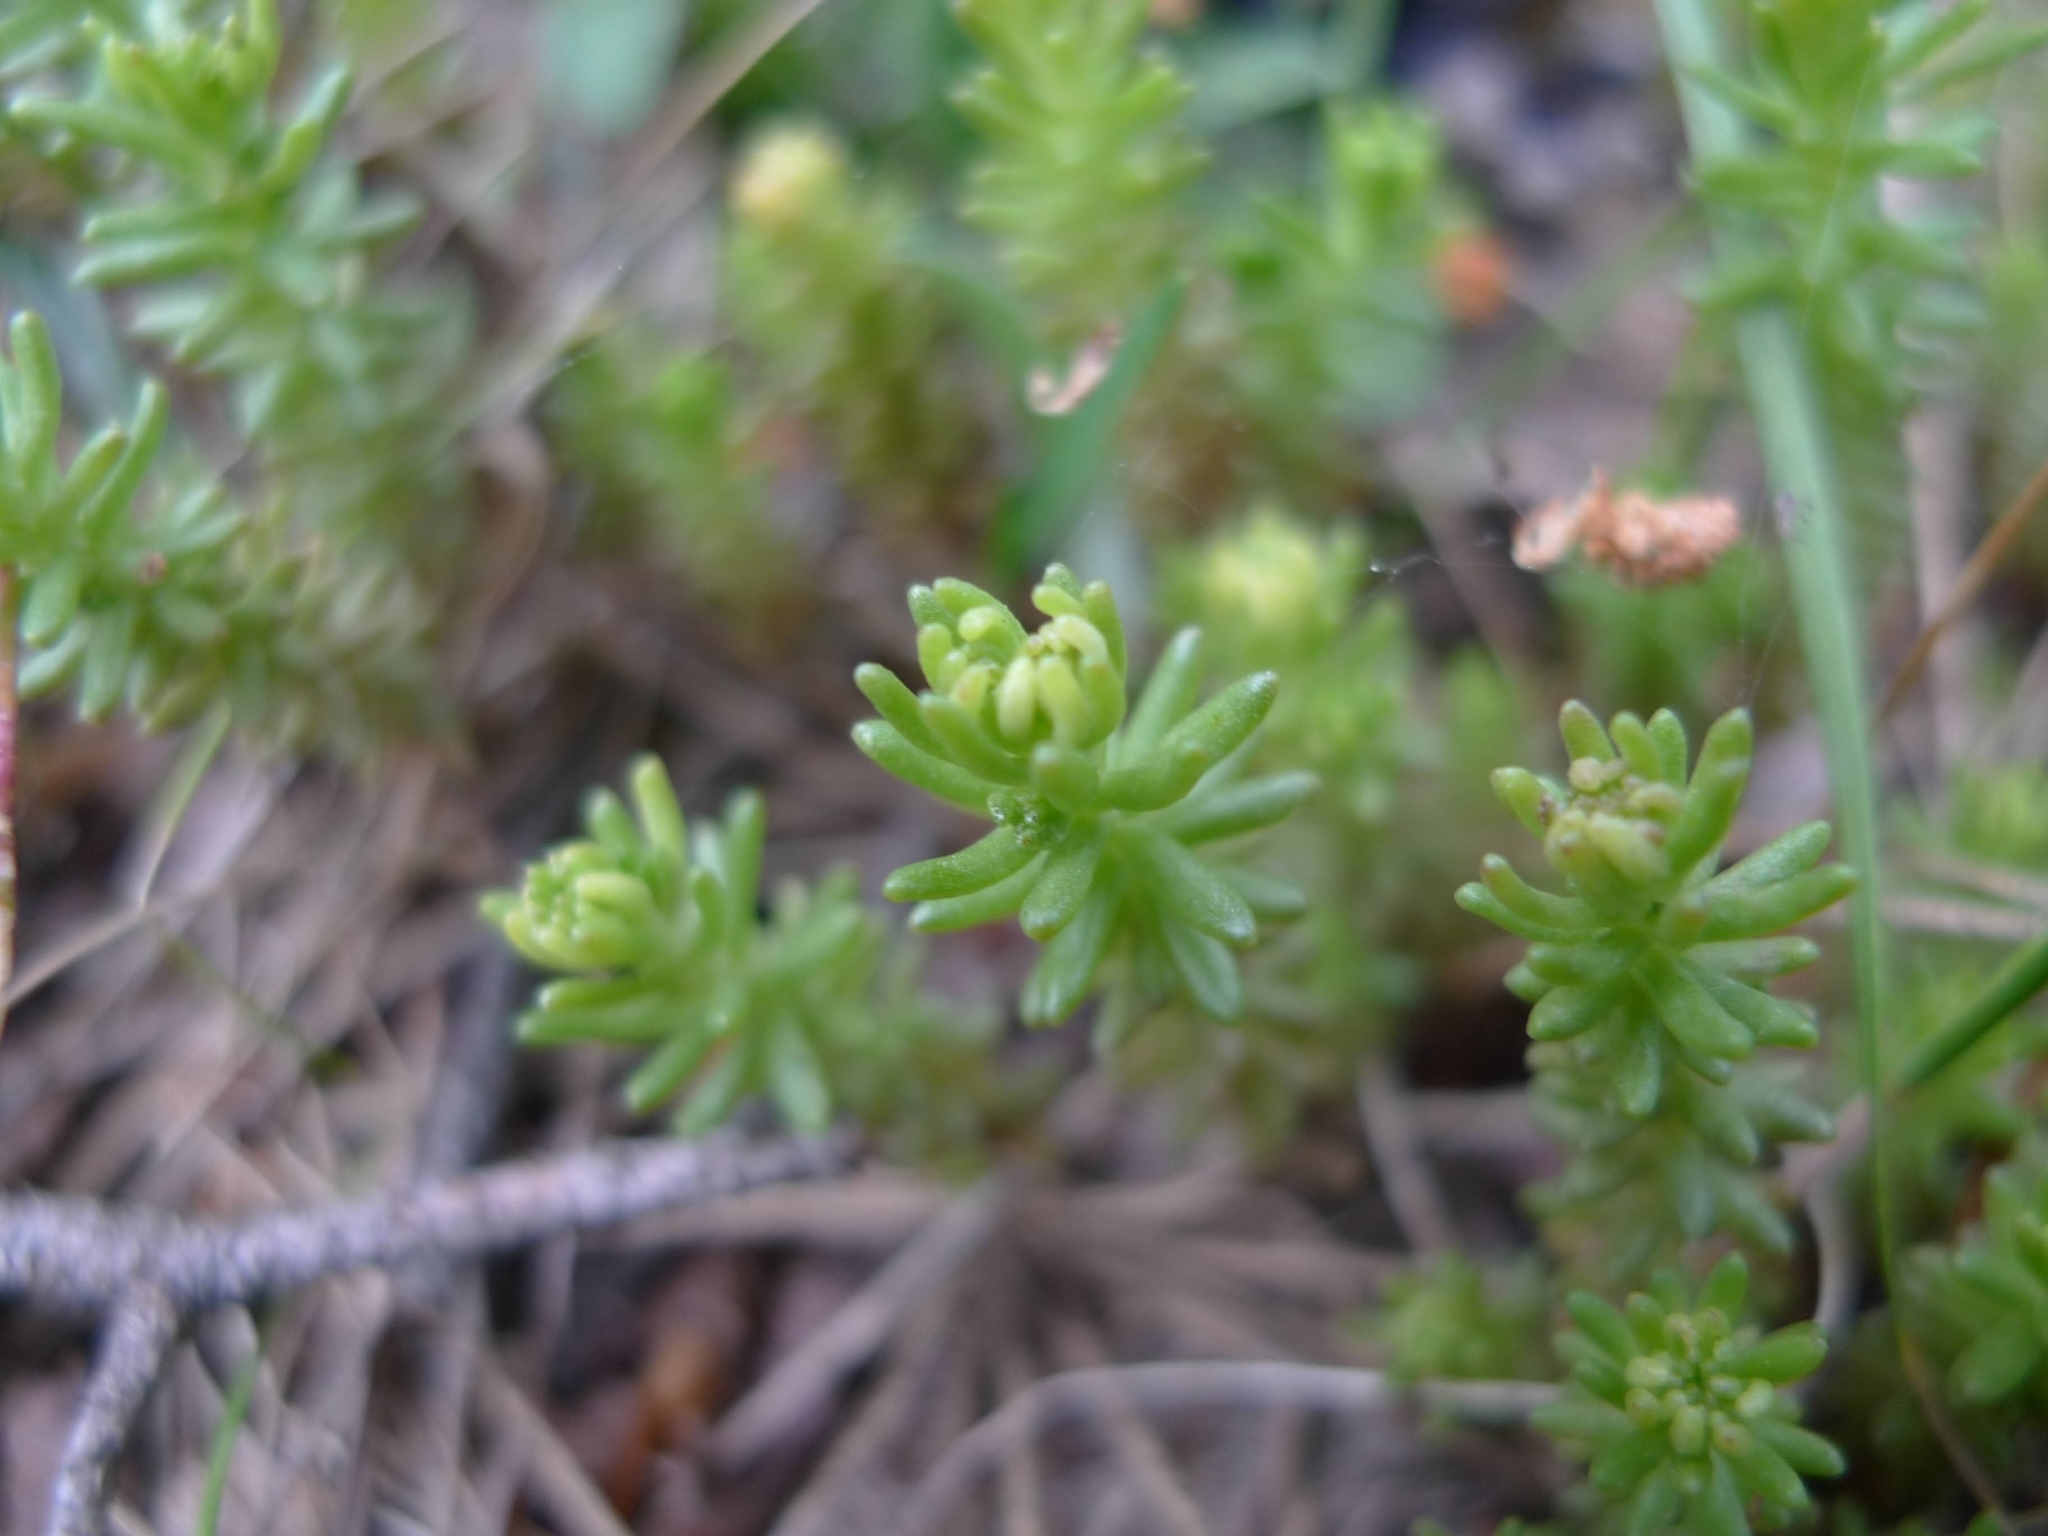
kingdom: Plantae
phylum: Tracheophyta
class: Magnoliopsida
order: Saxifragales
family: Crassulaceae
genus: Sedum
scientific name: Sedum sexangulare
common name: Tasteless stonecrop
